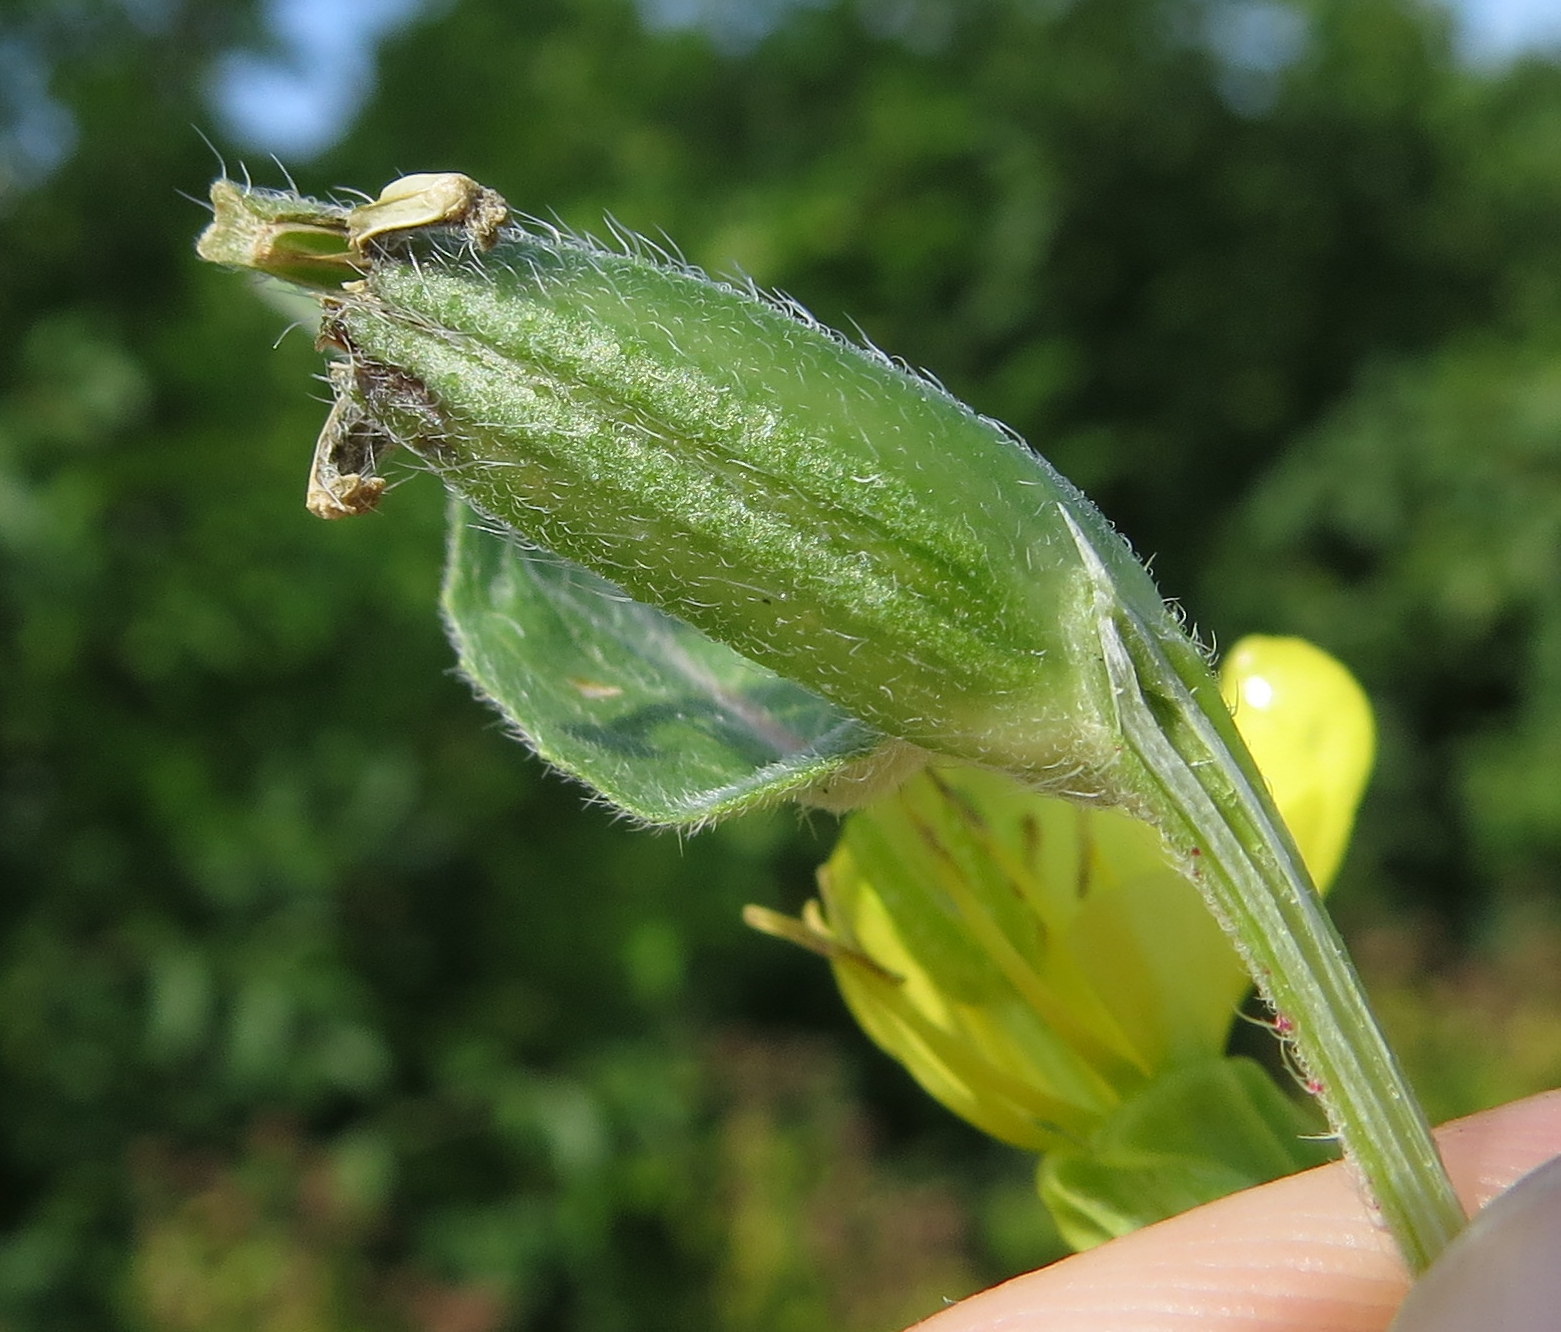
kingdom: Plantae
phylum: Tracheophyta
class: Magnoliopsida
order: Myrtales
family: Onagraceae
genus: Oenothera
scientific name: Oenothera biennis
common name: Common evening-primrose
